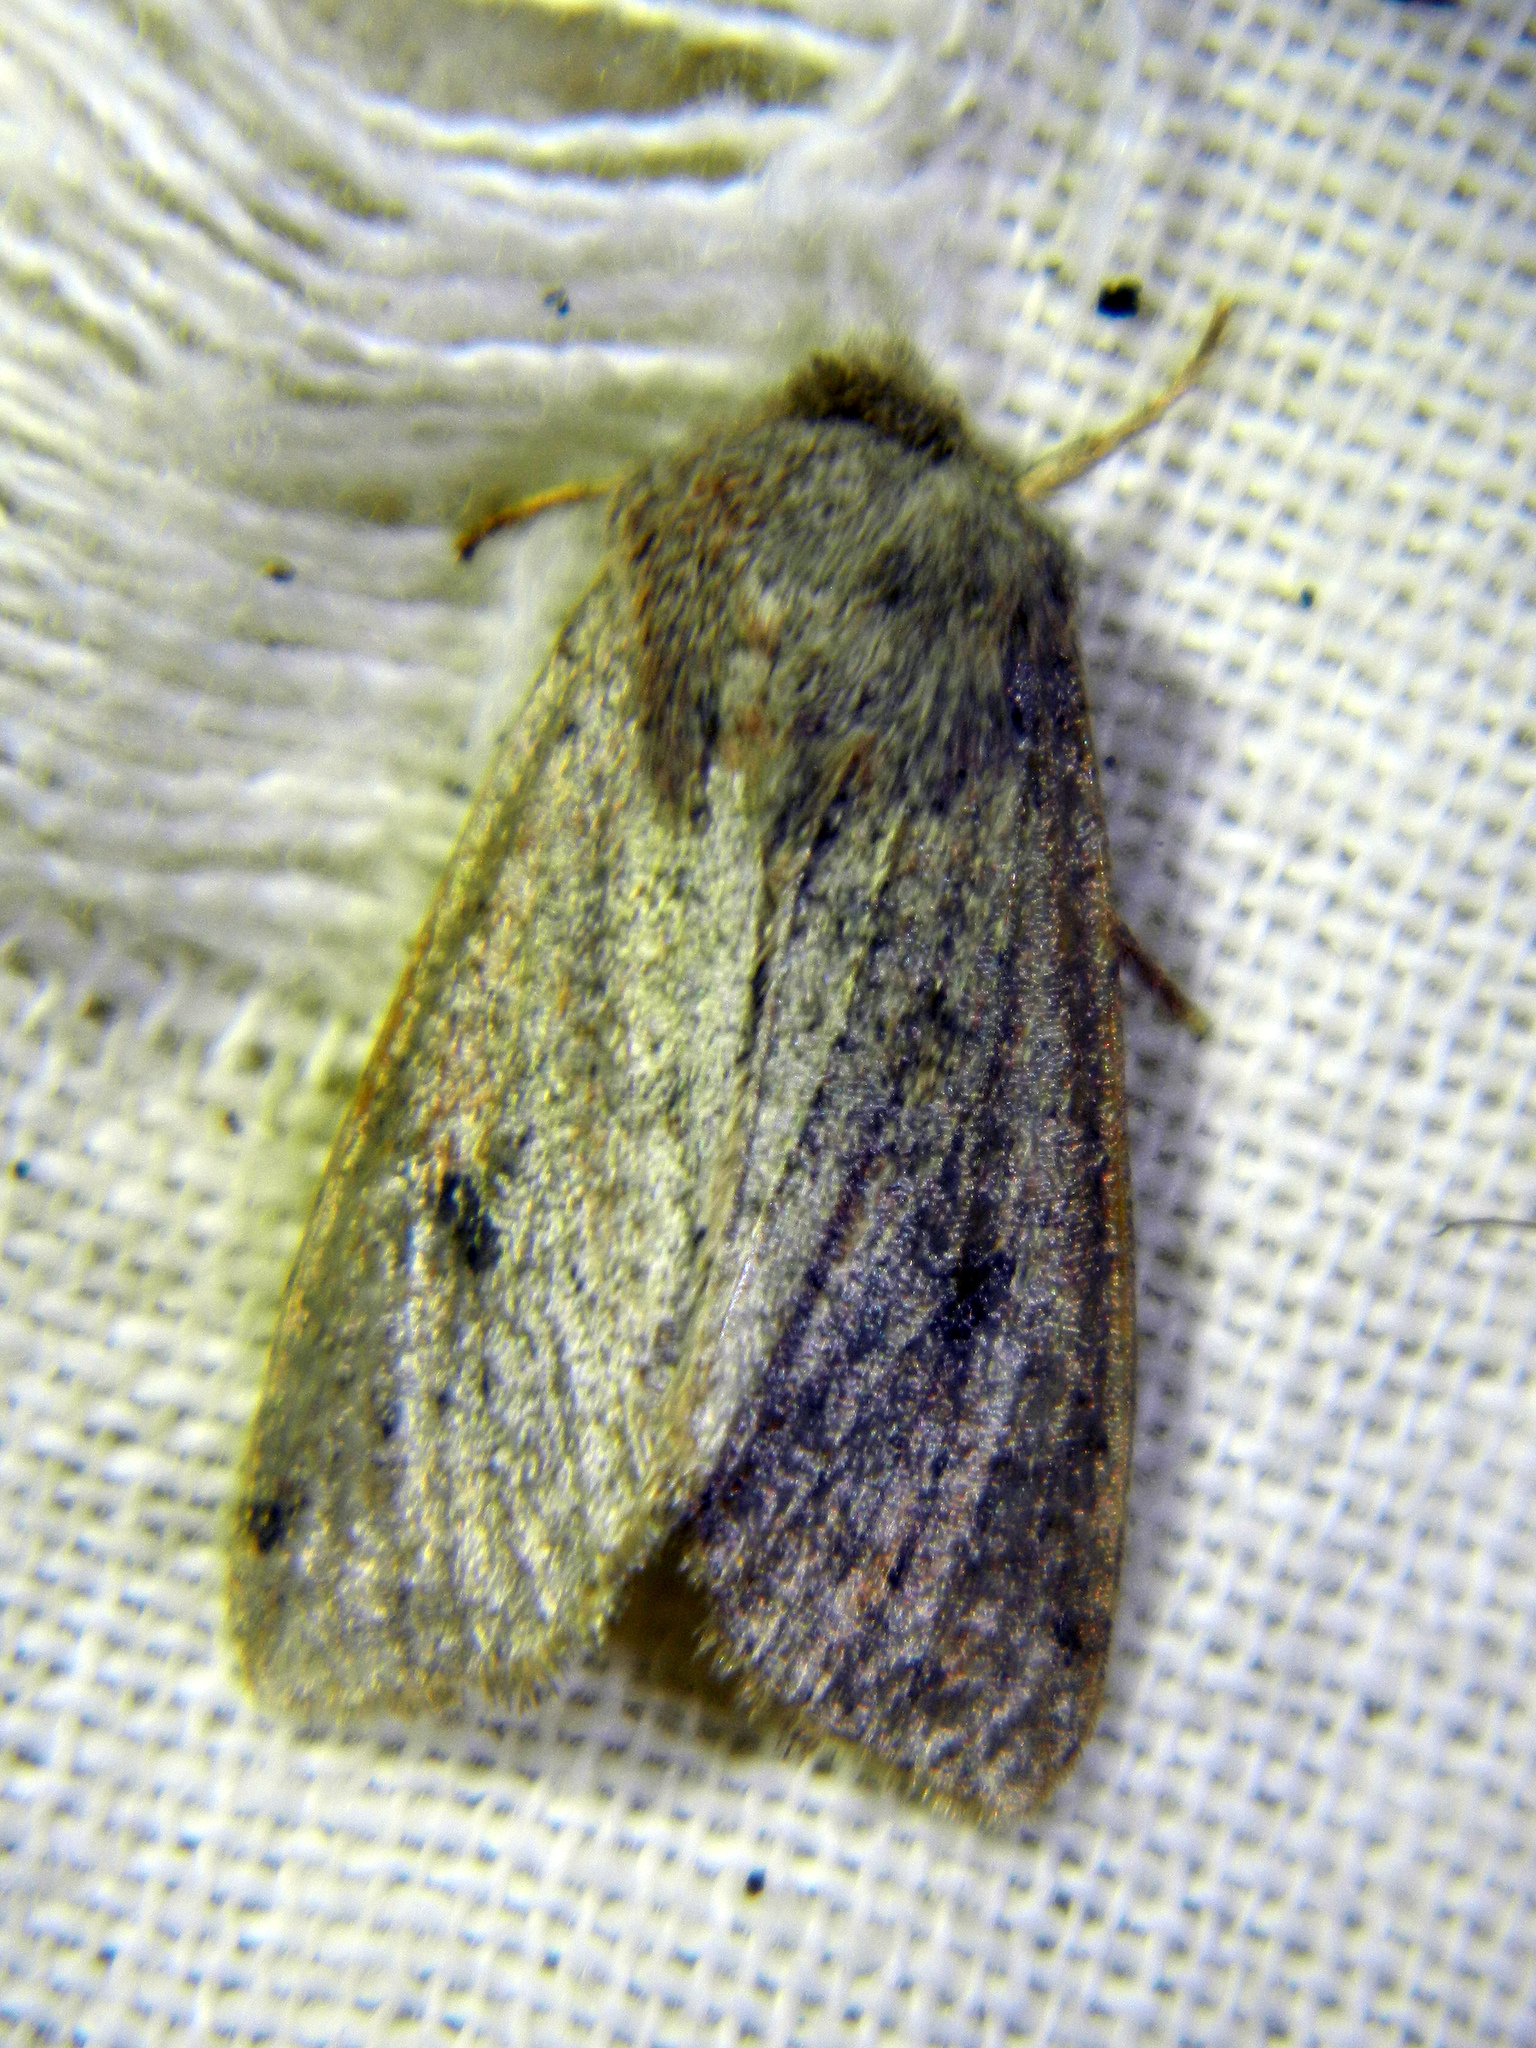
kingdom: Animalia
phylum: Arthropoda
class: Insecta
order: Lepidoptera
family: Noctuidae
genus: Orthosia
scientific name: Orthosia hibisci
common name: Green fruitworm
